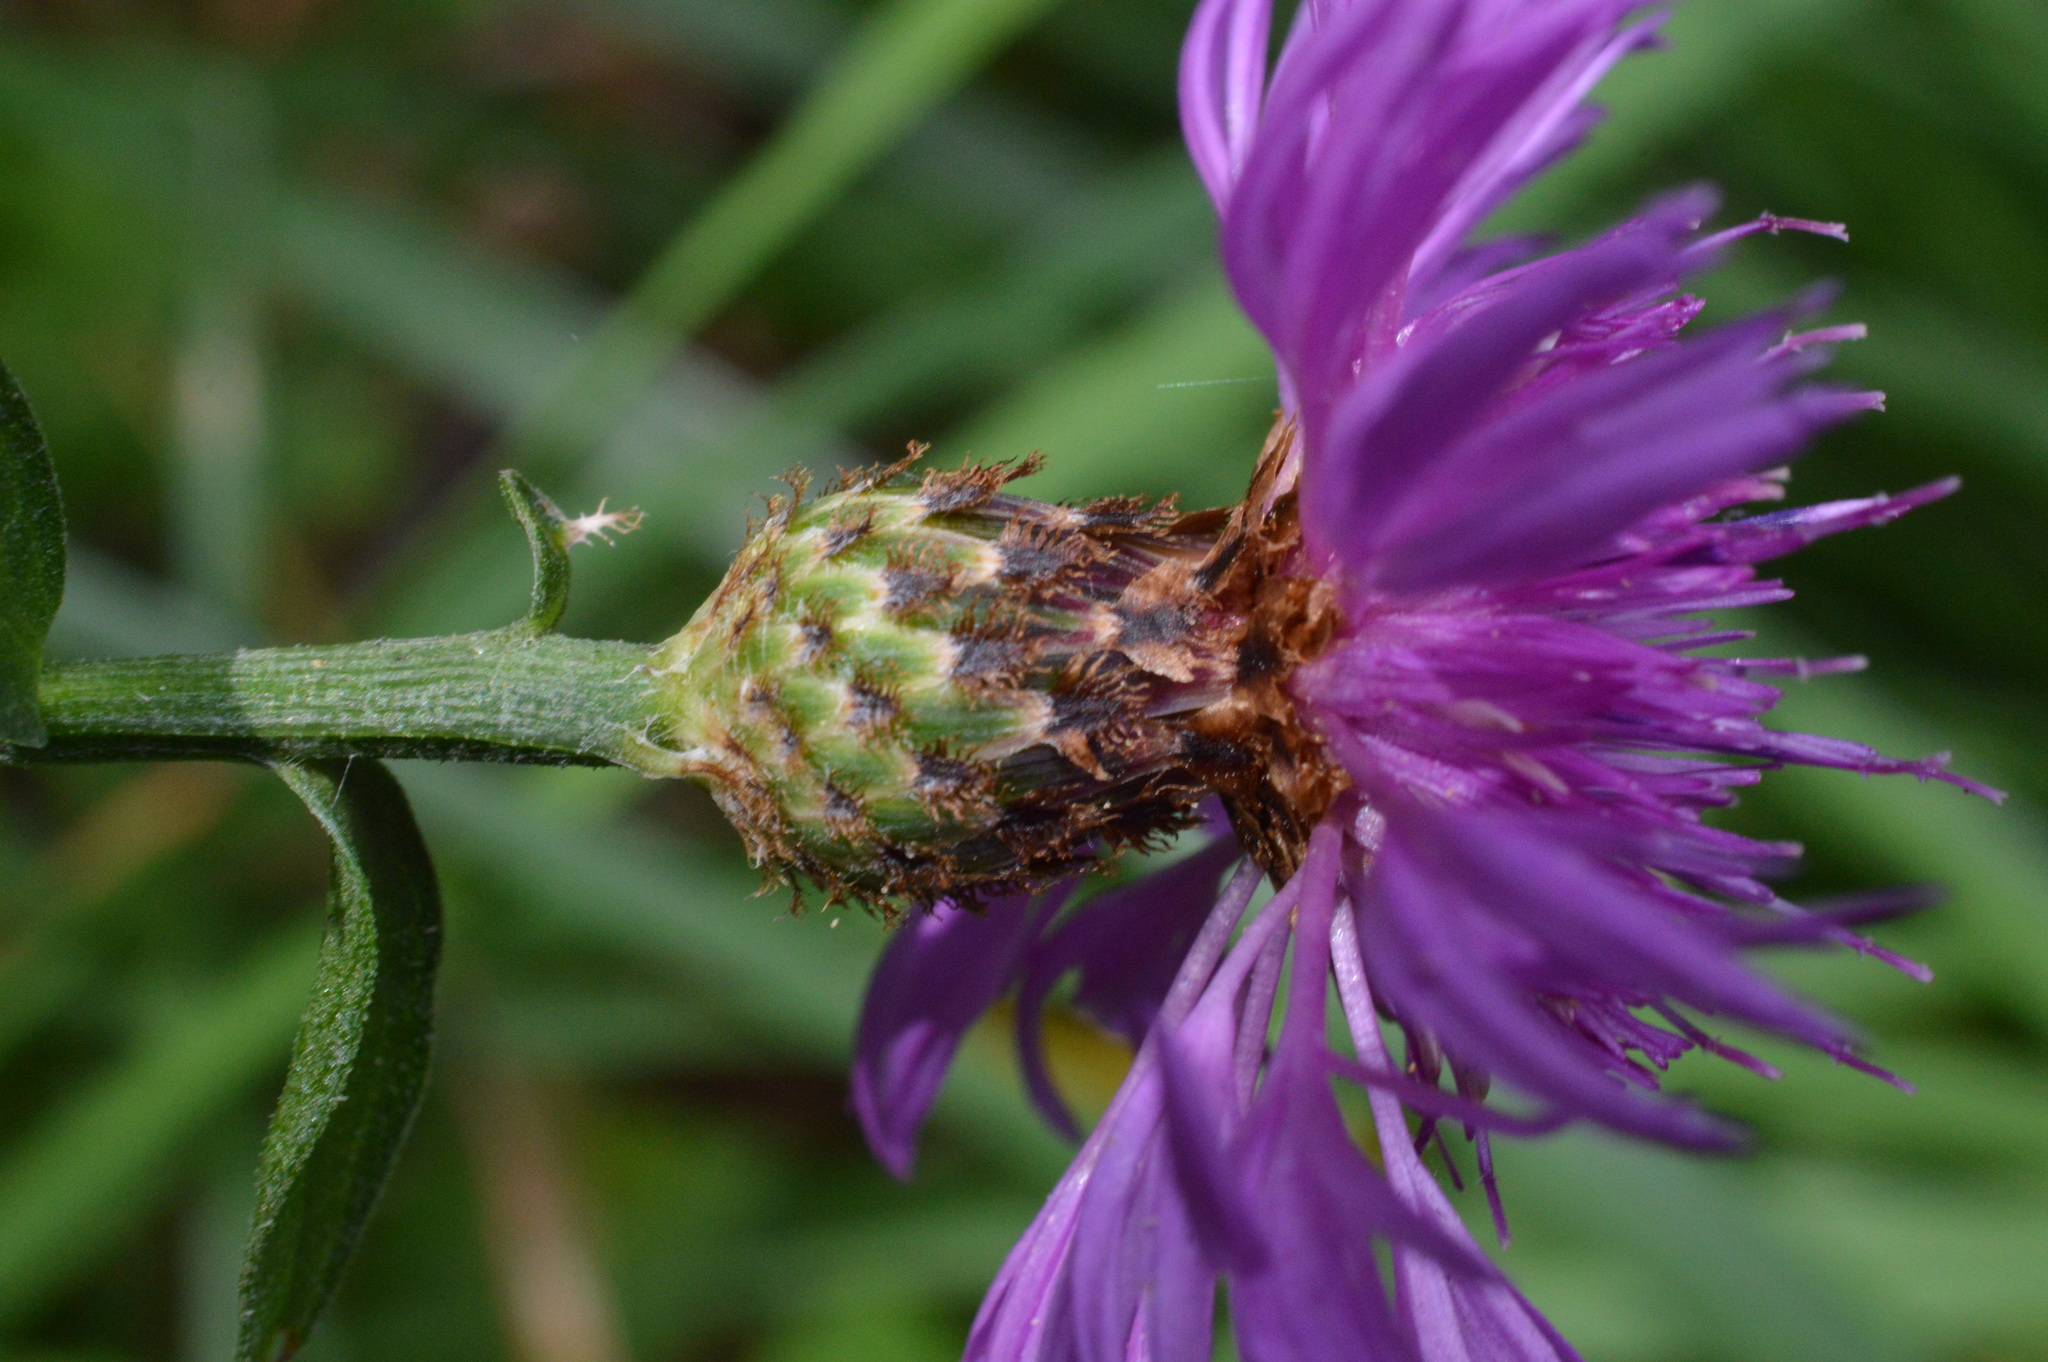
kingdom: Plantae
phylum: Tracheophyta
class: Magnoliopsida
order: Asterales
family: Asteraceae
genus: Centaurea
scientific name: Centaurea nigrescens
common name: Tyrol knapweed
